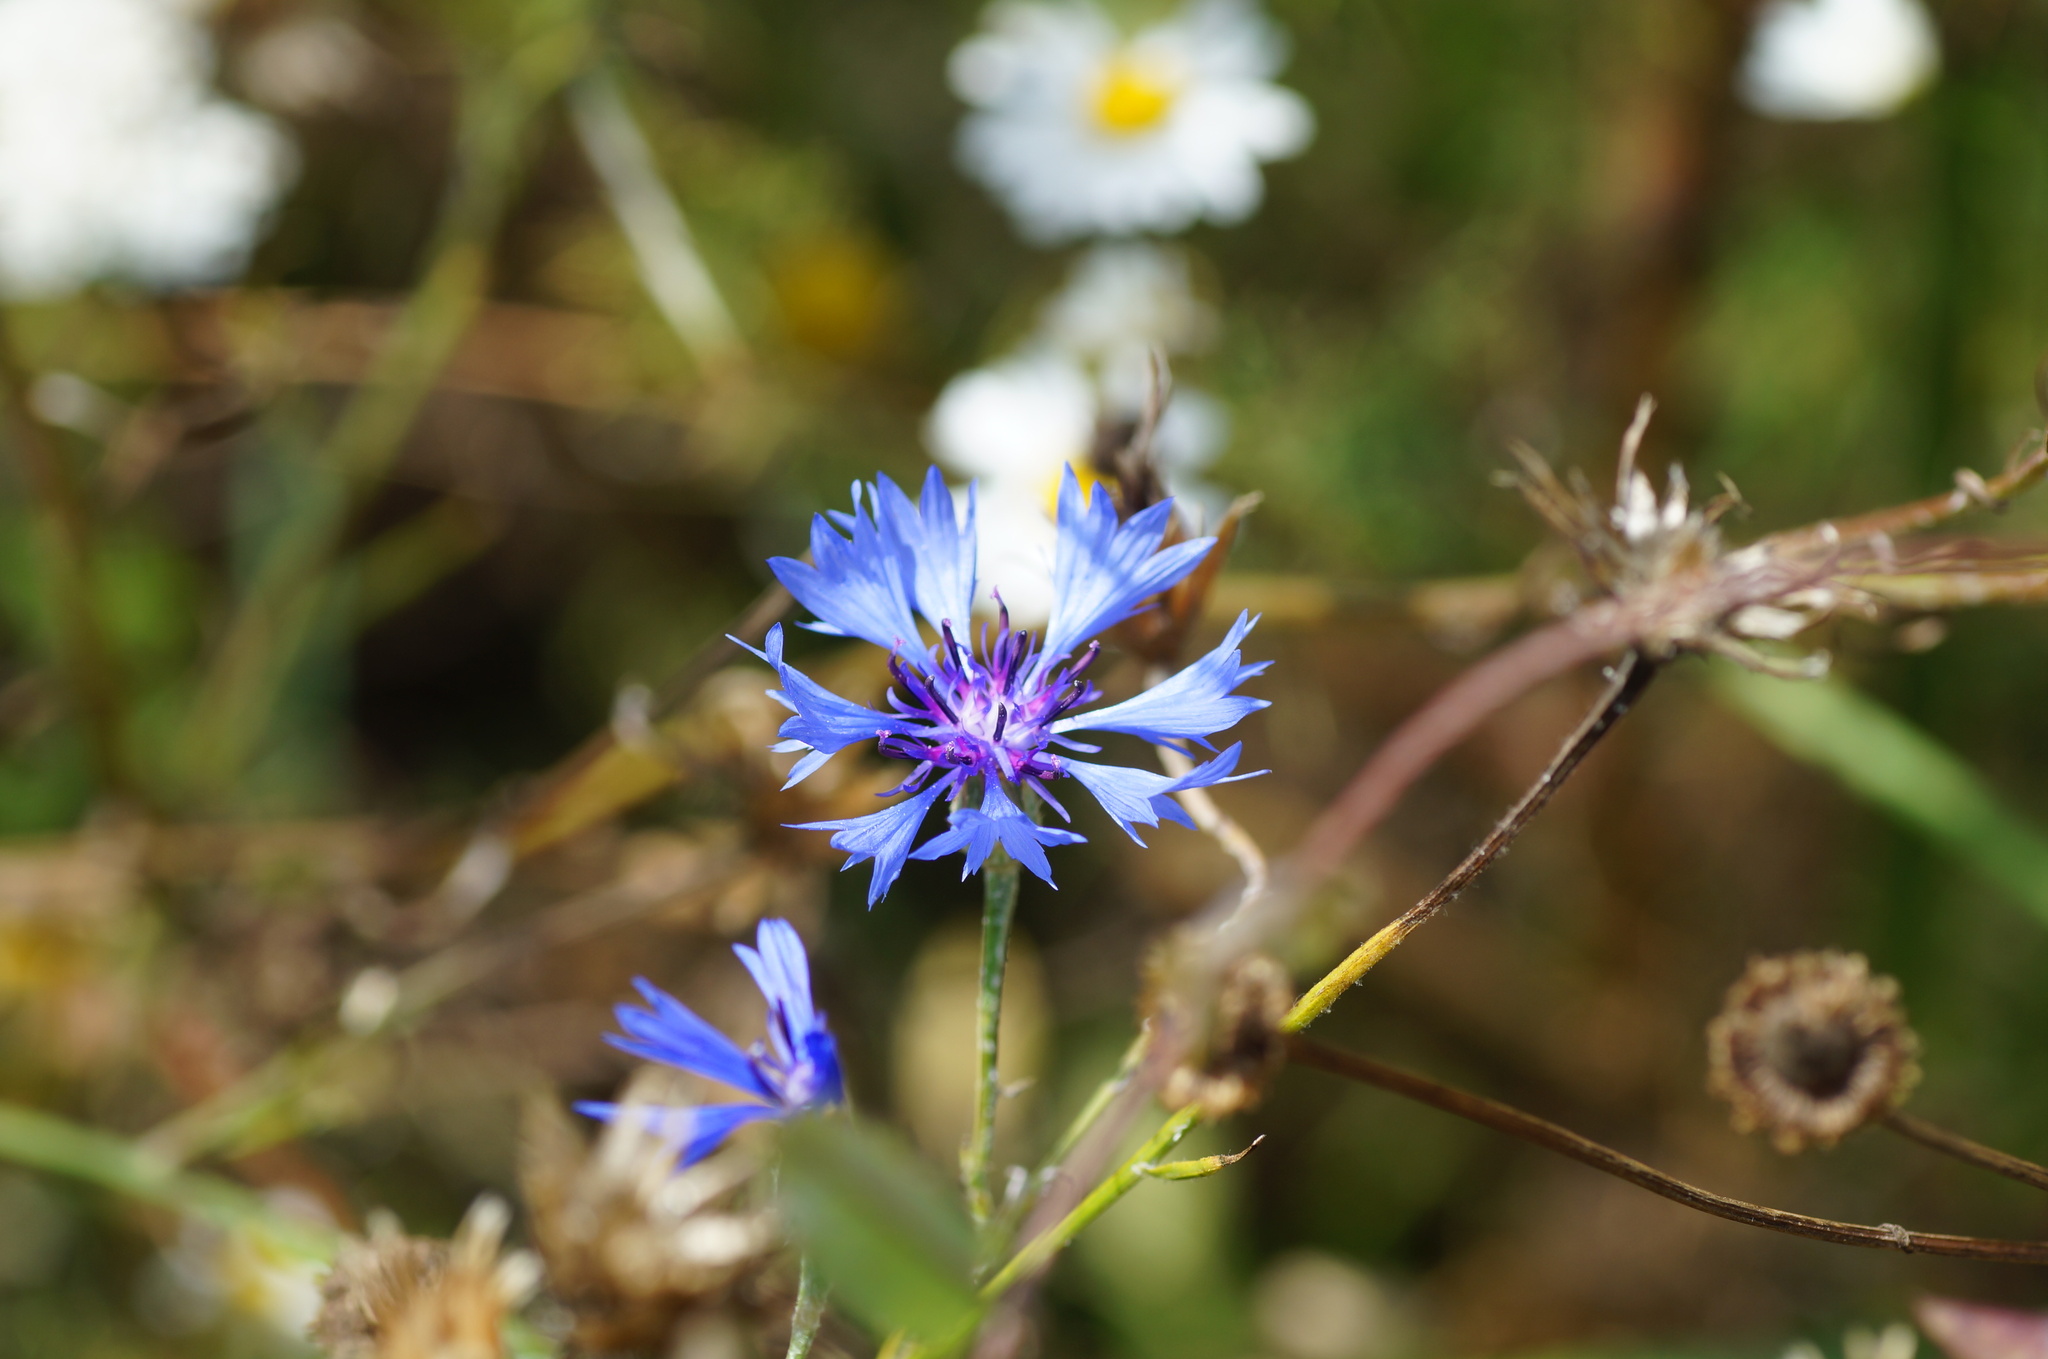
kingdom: Plantae
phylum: Tracheophyta
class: Magnoliopsida
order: Asterales
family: Asteraceae
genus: Centaurea
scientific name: Centaurea cyanus
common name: Cornflower
